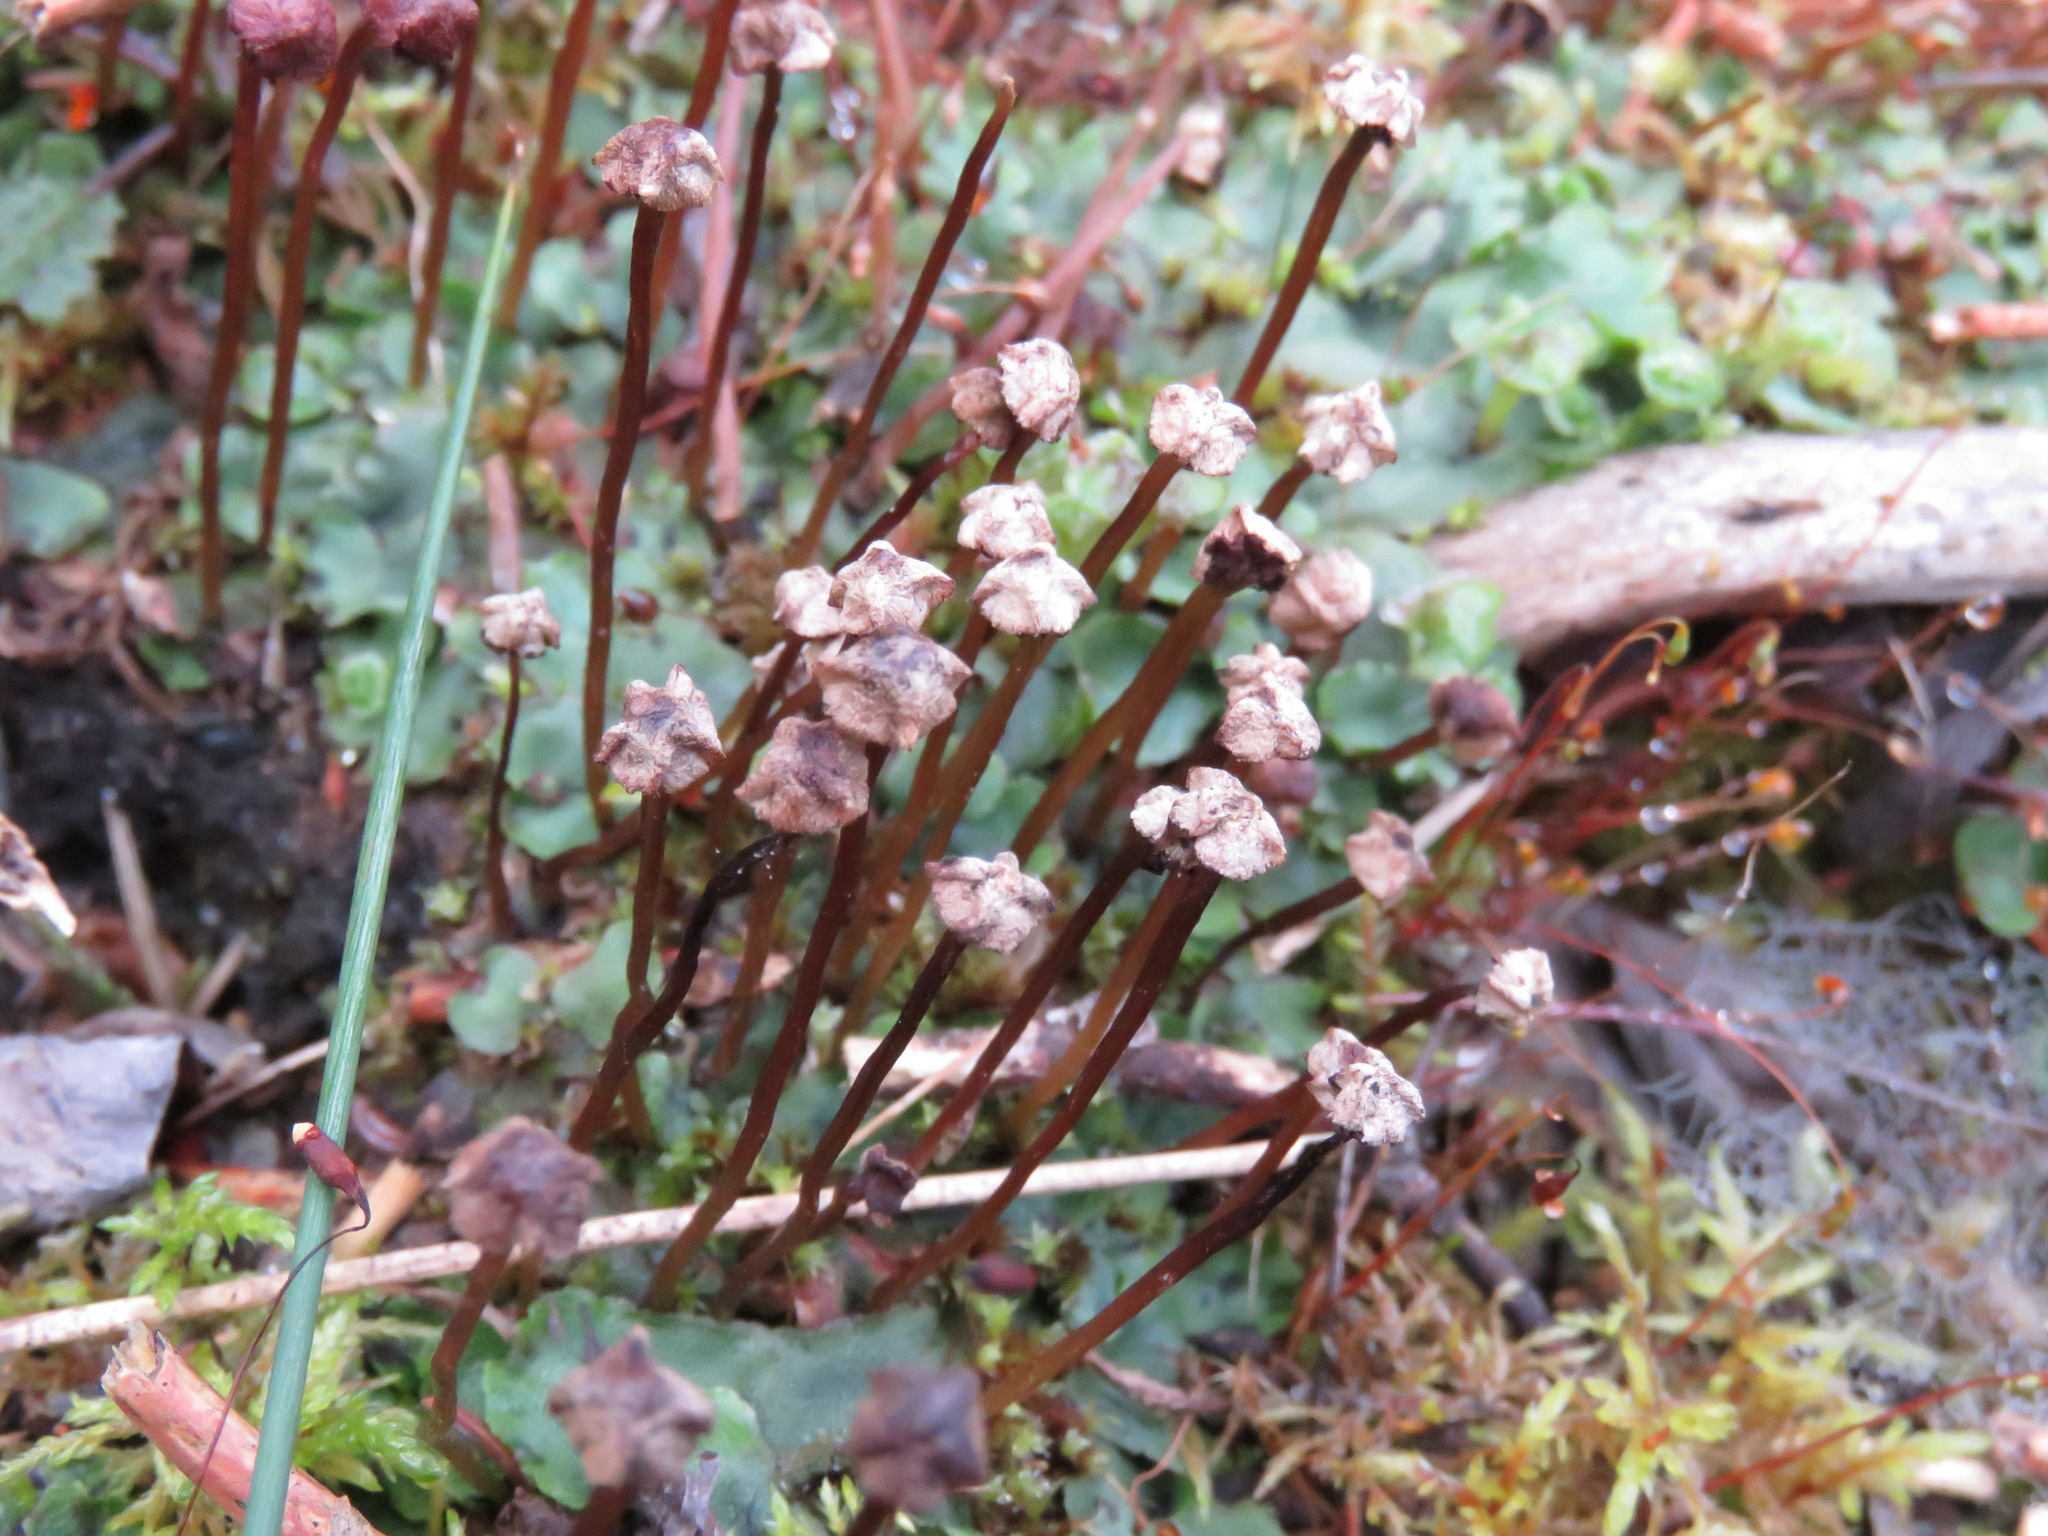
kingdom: Plantae
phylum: Marchantiophyta
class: Marchantiopsida
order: Marchantiales
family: Marchantiaceae
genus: Marchantia
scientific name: Marchantia quadrata
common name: Narrow mushroom-headed liverwort
